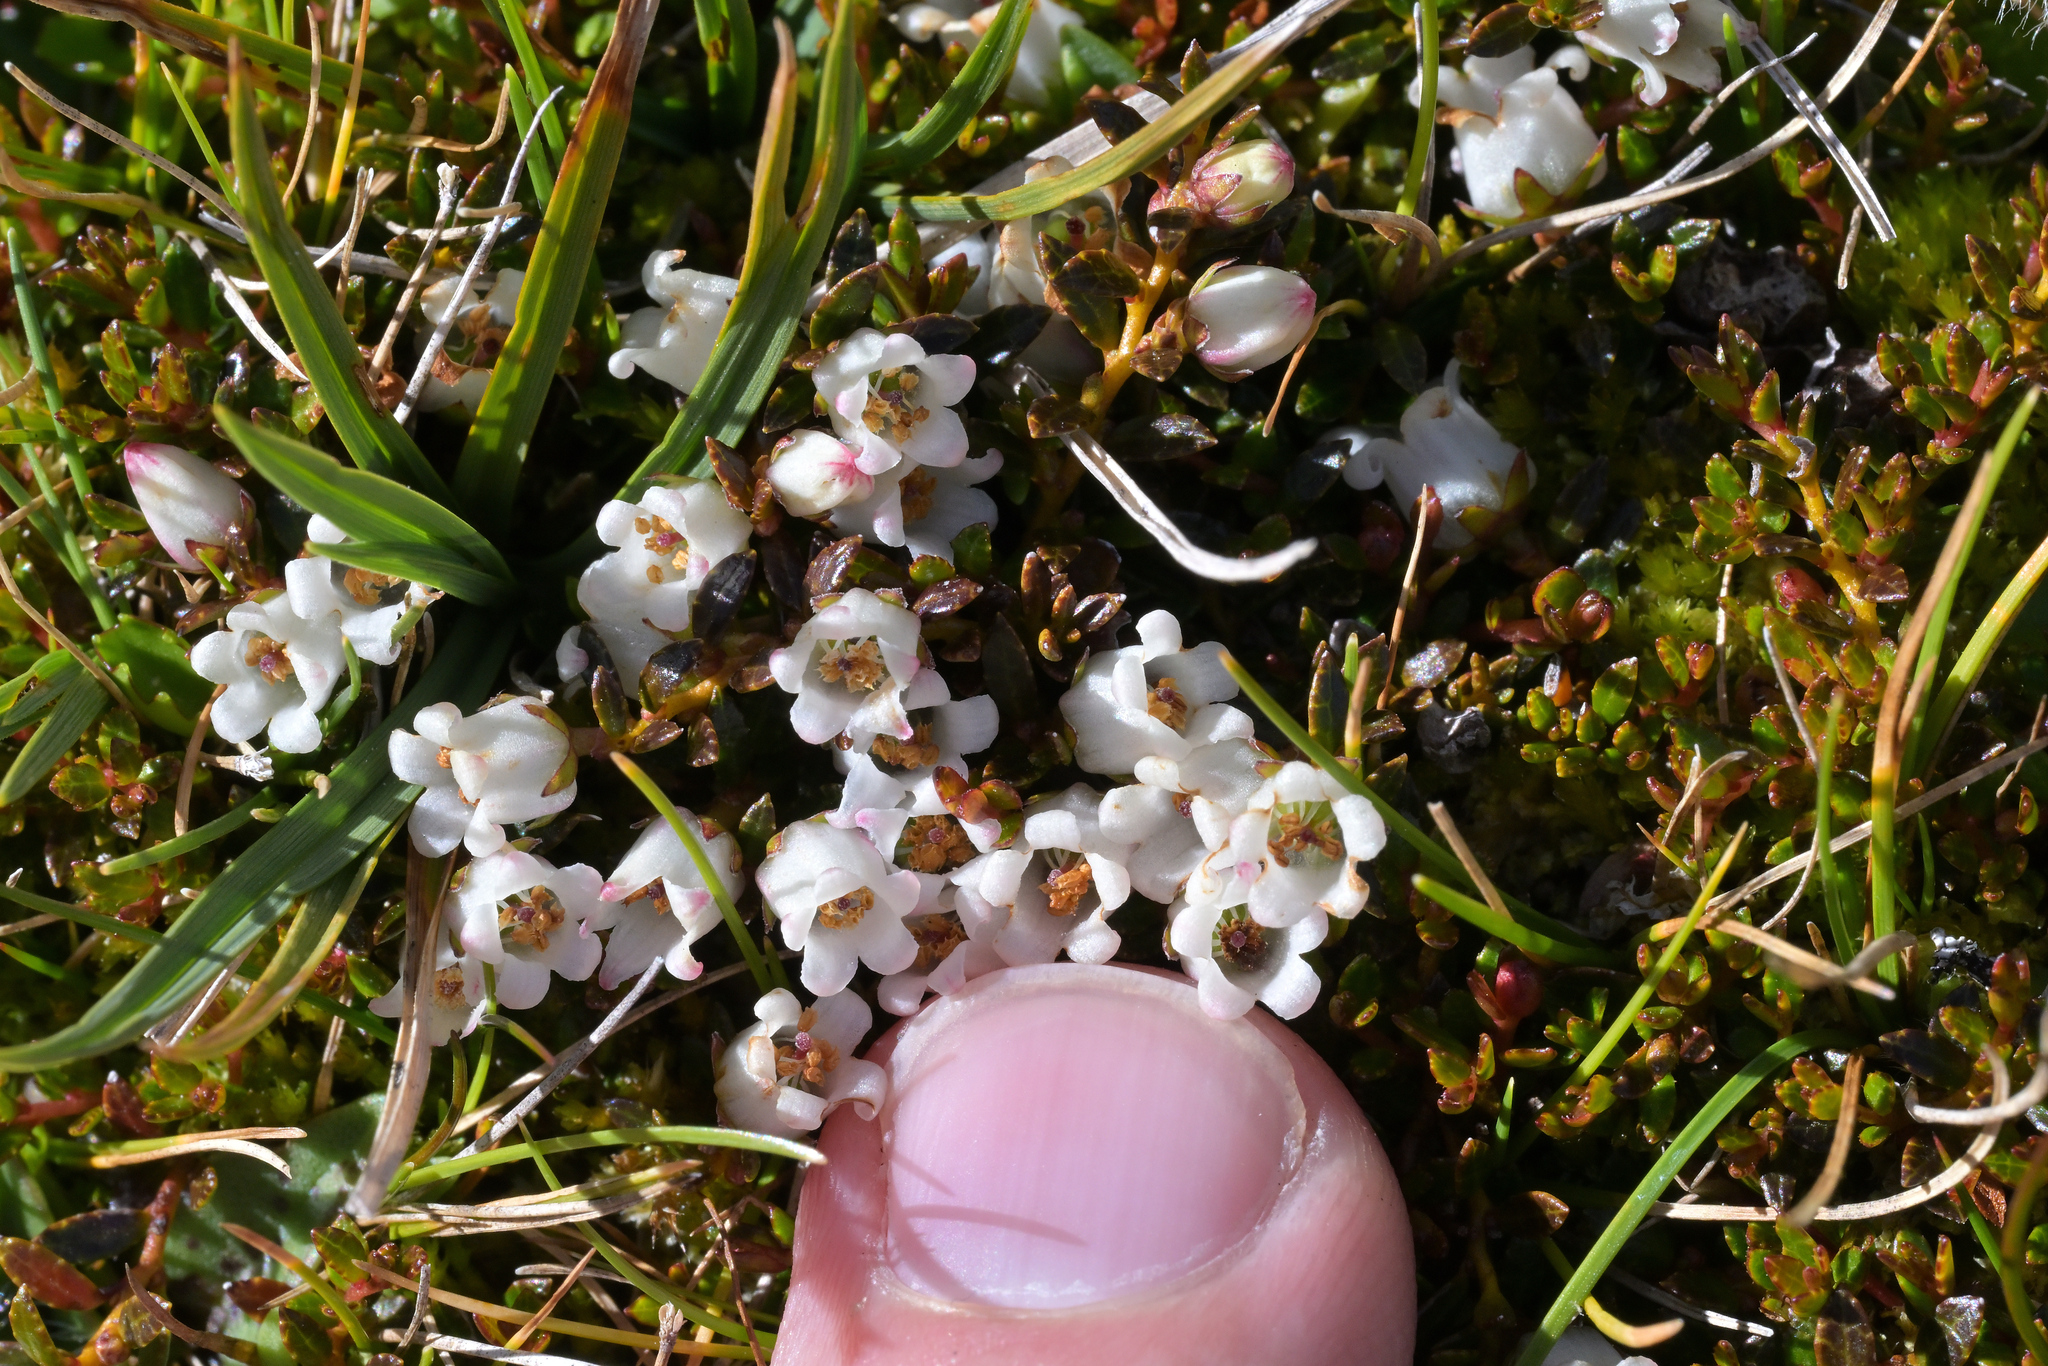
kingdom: Plantae
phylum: Tracheophyta
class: Magnoliopsida
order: Ericales
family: Ericaceae
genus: Gaultheria
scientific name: Gaultheria parvula
